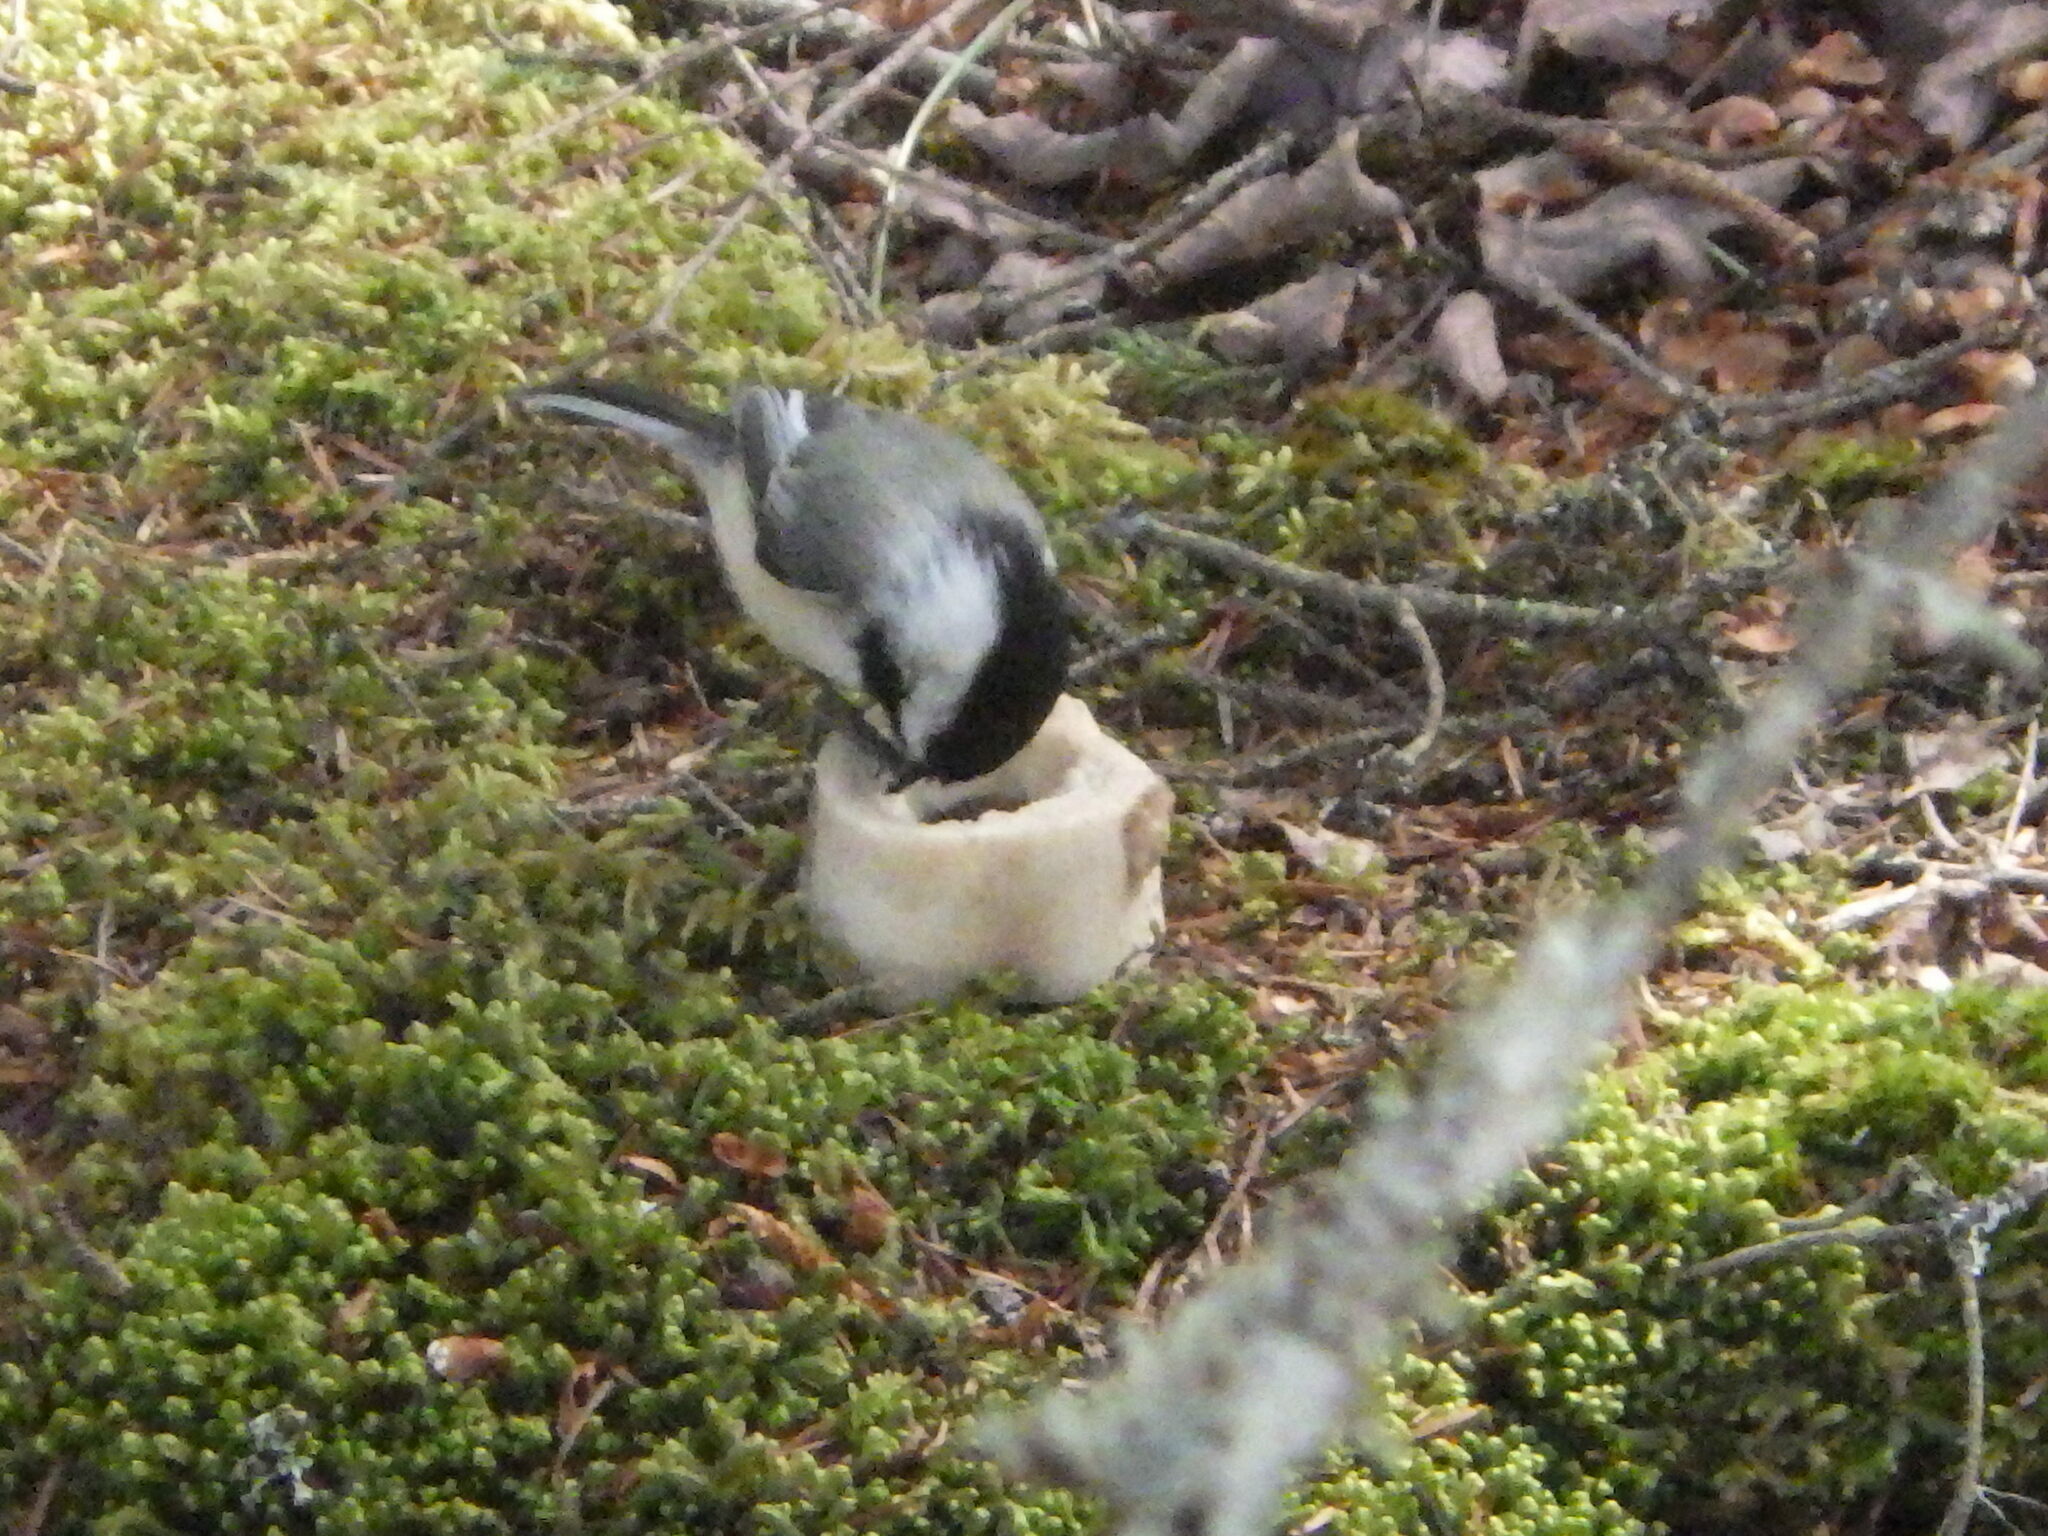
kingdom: Animalia
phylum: Chordata
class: Aves
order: Passeriformes
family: Paridae
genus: Poecile
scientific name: Poecile atricapillus
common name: Black-capped chickadee
